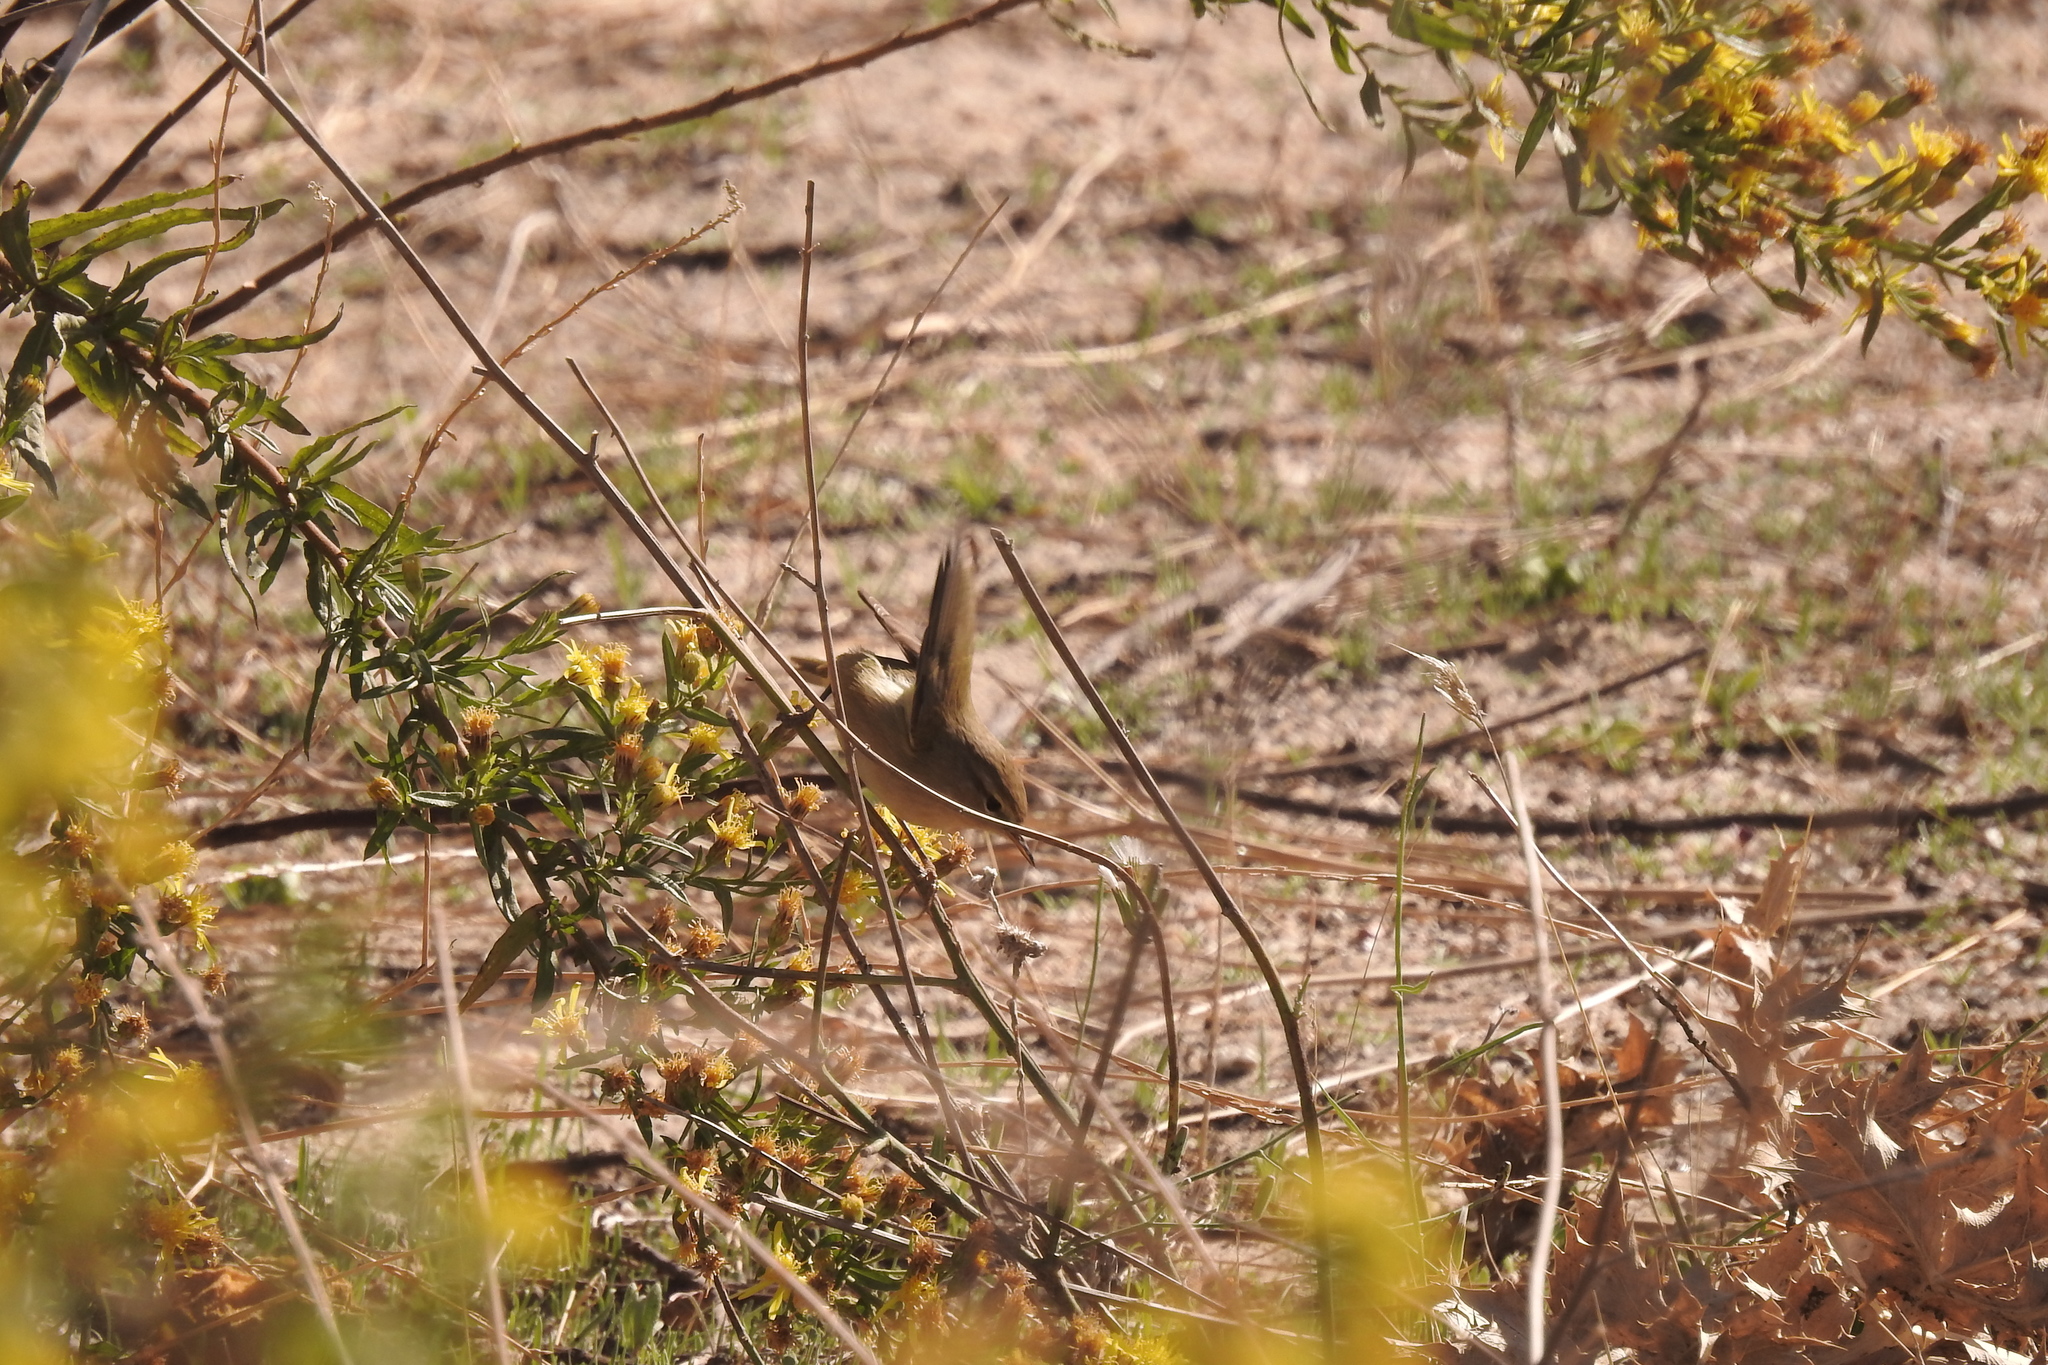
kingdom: Animalia
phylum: Chordata
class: Aves
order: Passeriformes
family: Phylloscopidae
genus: Phylloscopus
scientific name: Phylloscopus collybita
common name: Common chiffchaff
